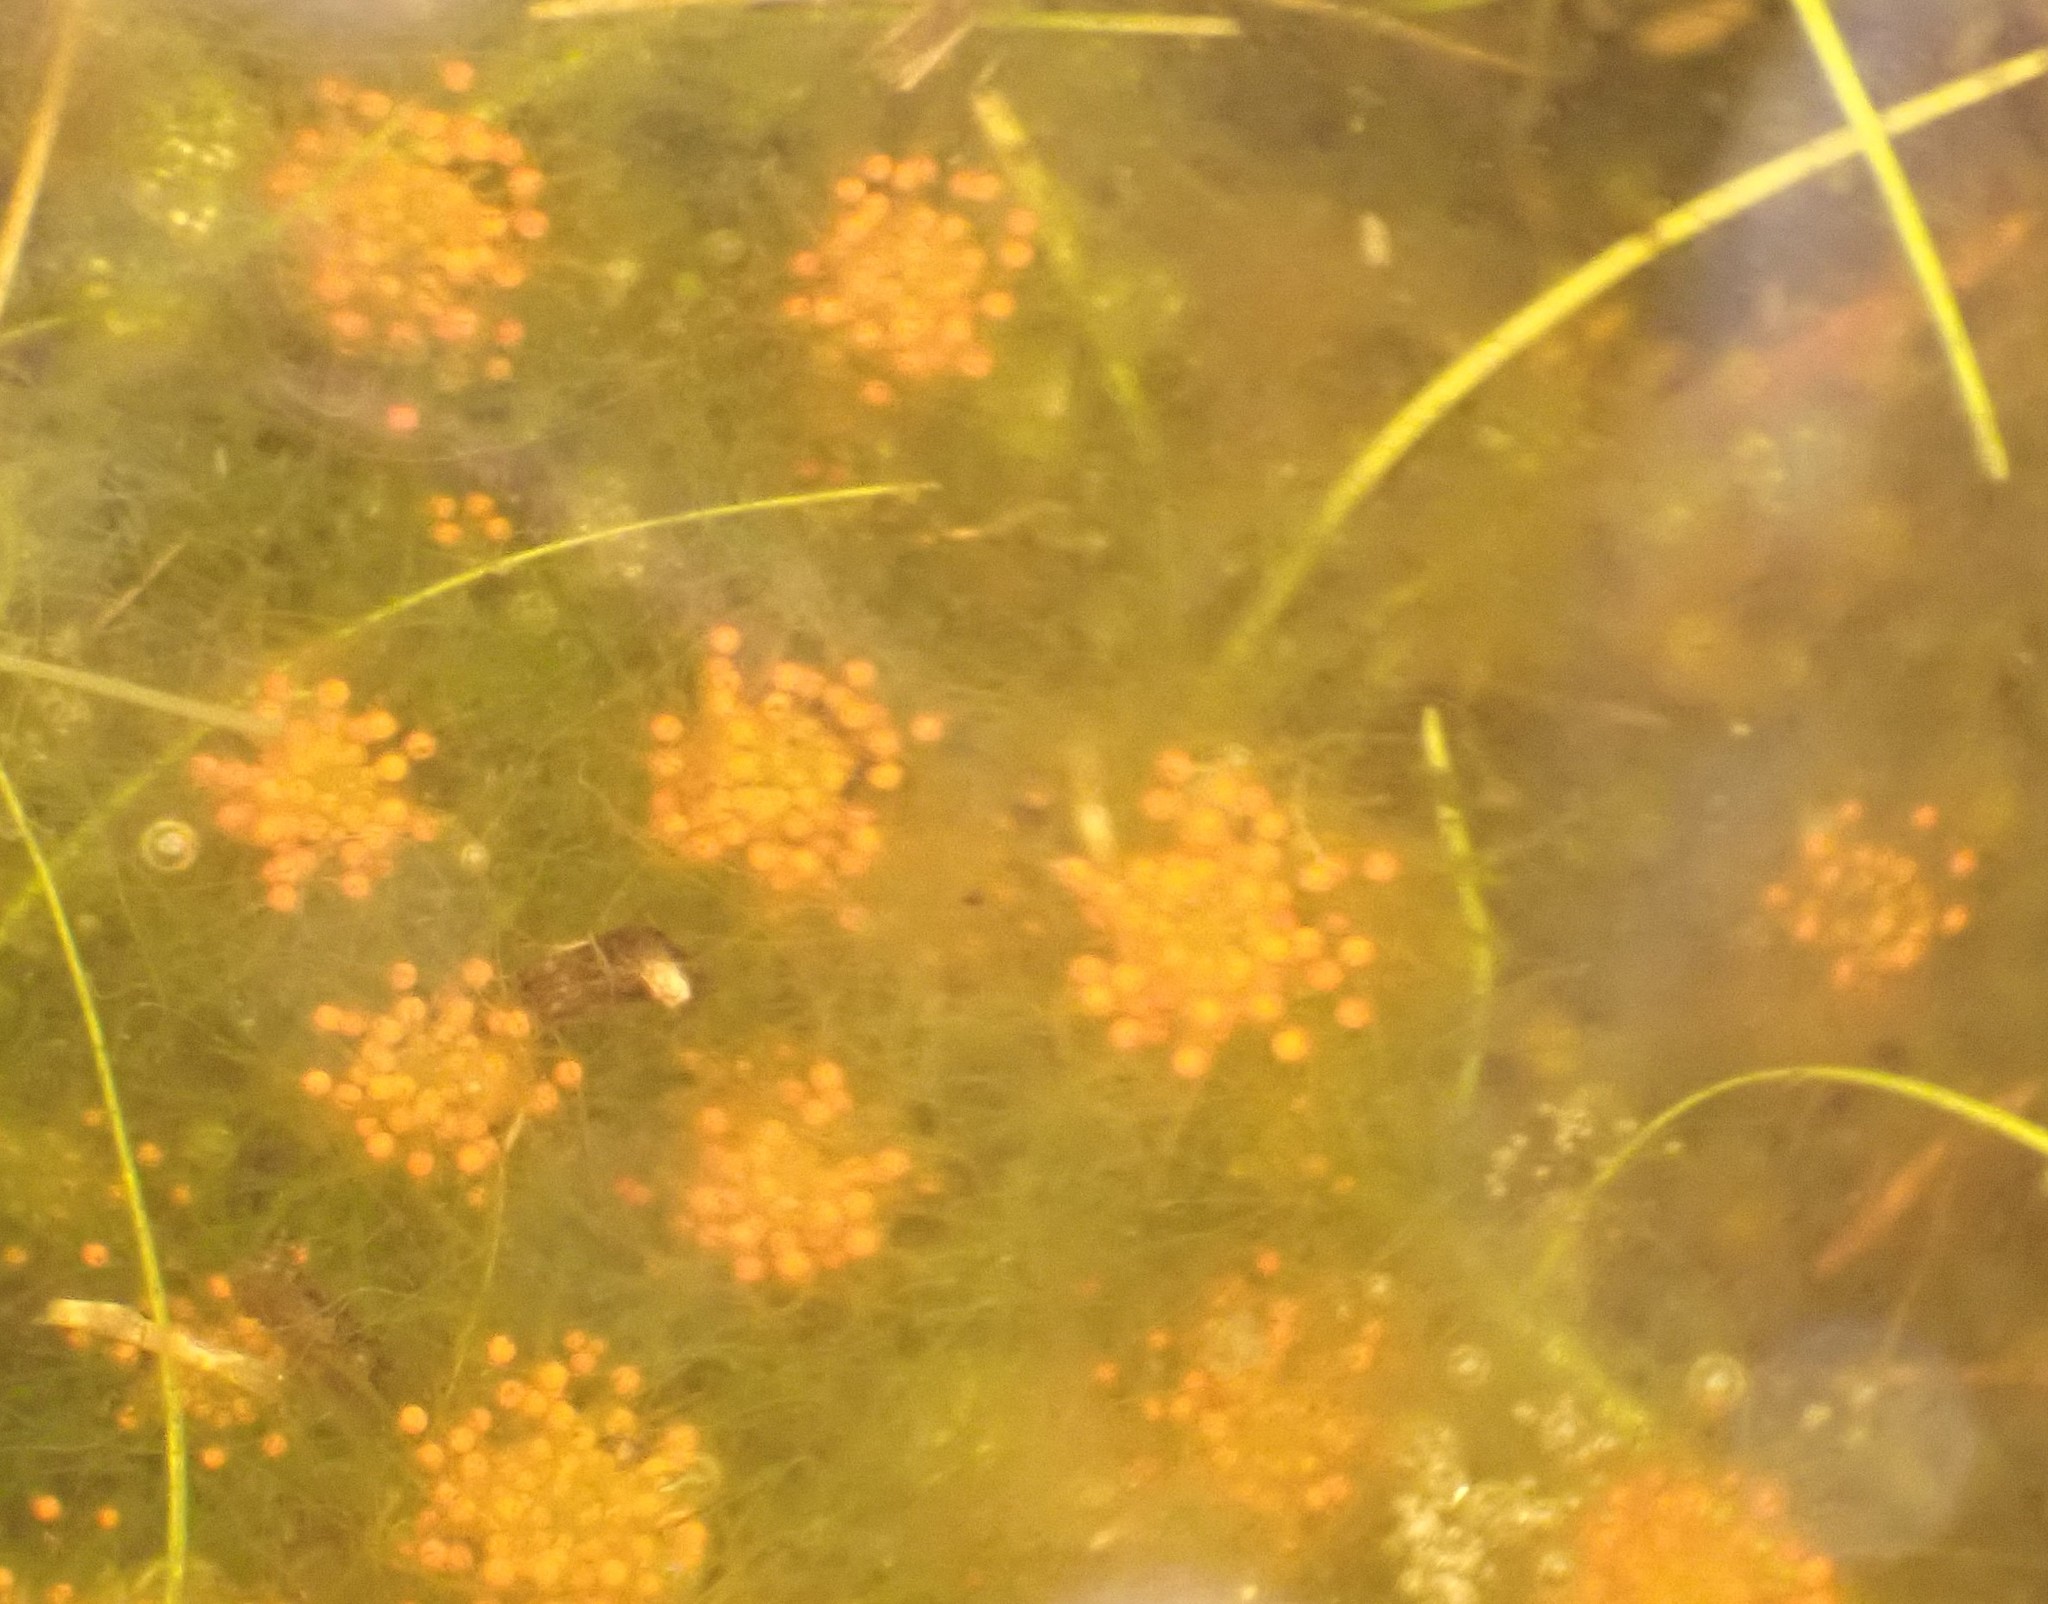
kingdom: Plantae
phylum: Charophyta
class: Charophyceae
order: Charales
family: Characeae
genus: Chara
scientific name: Chara
